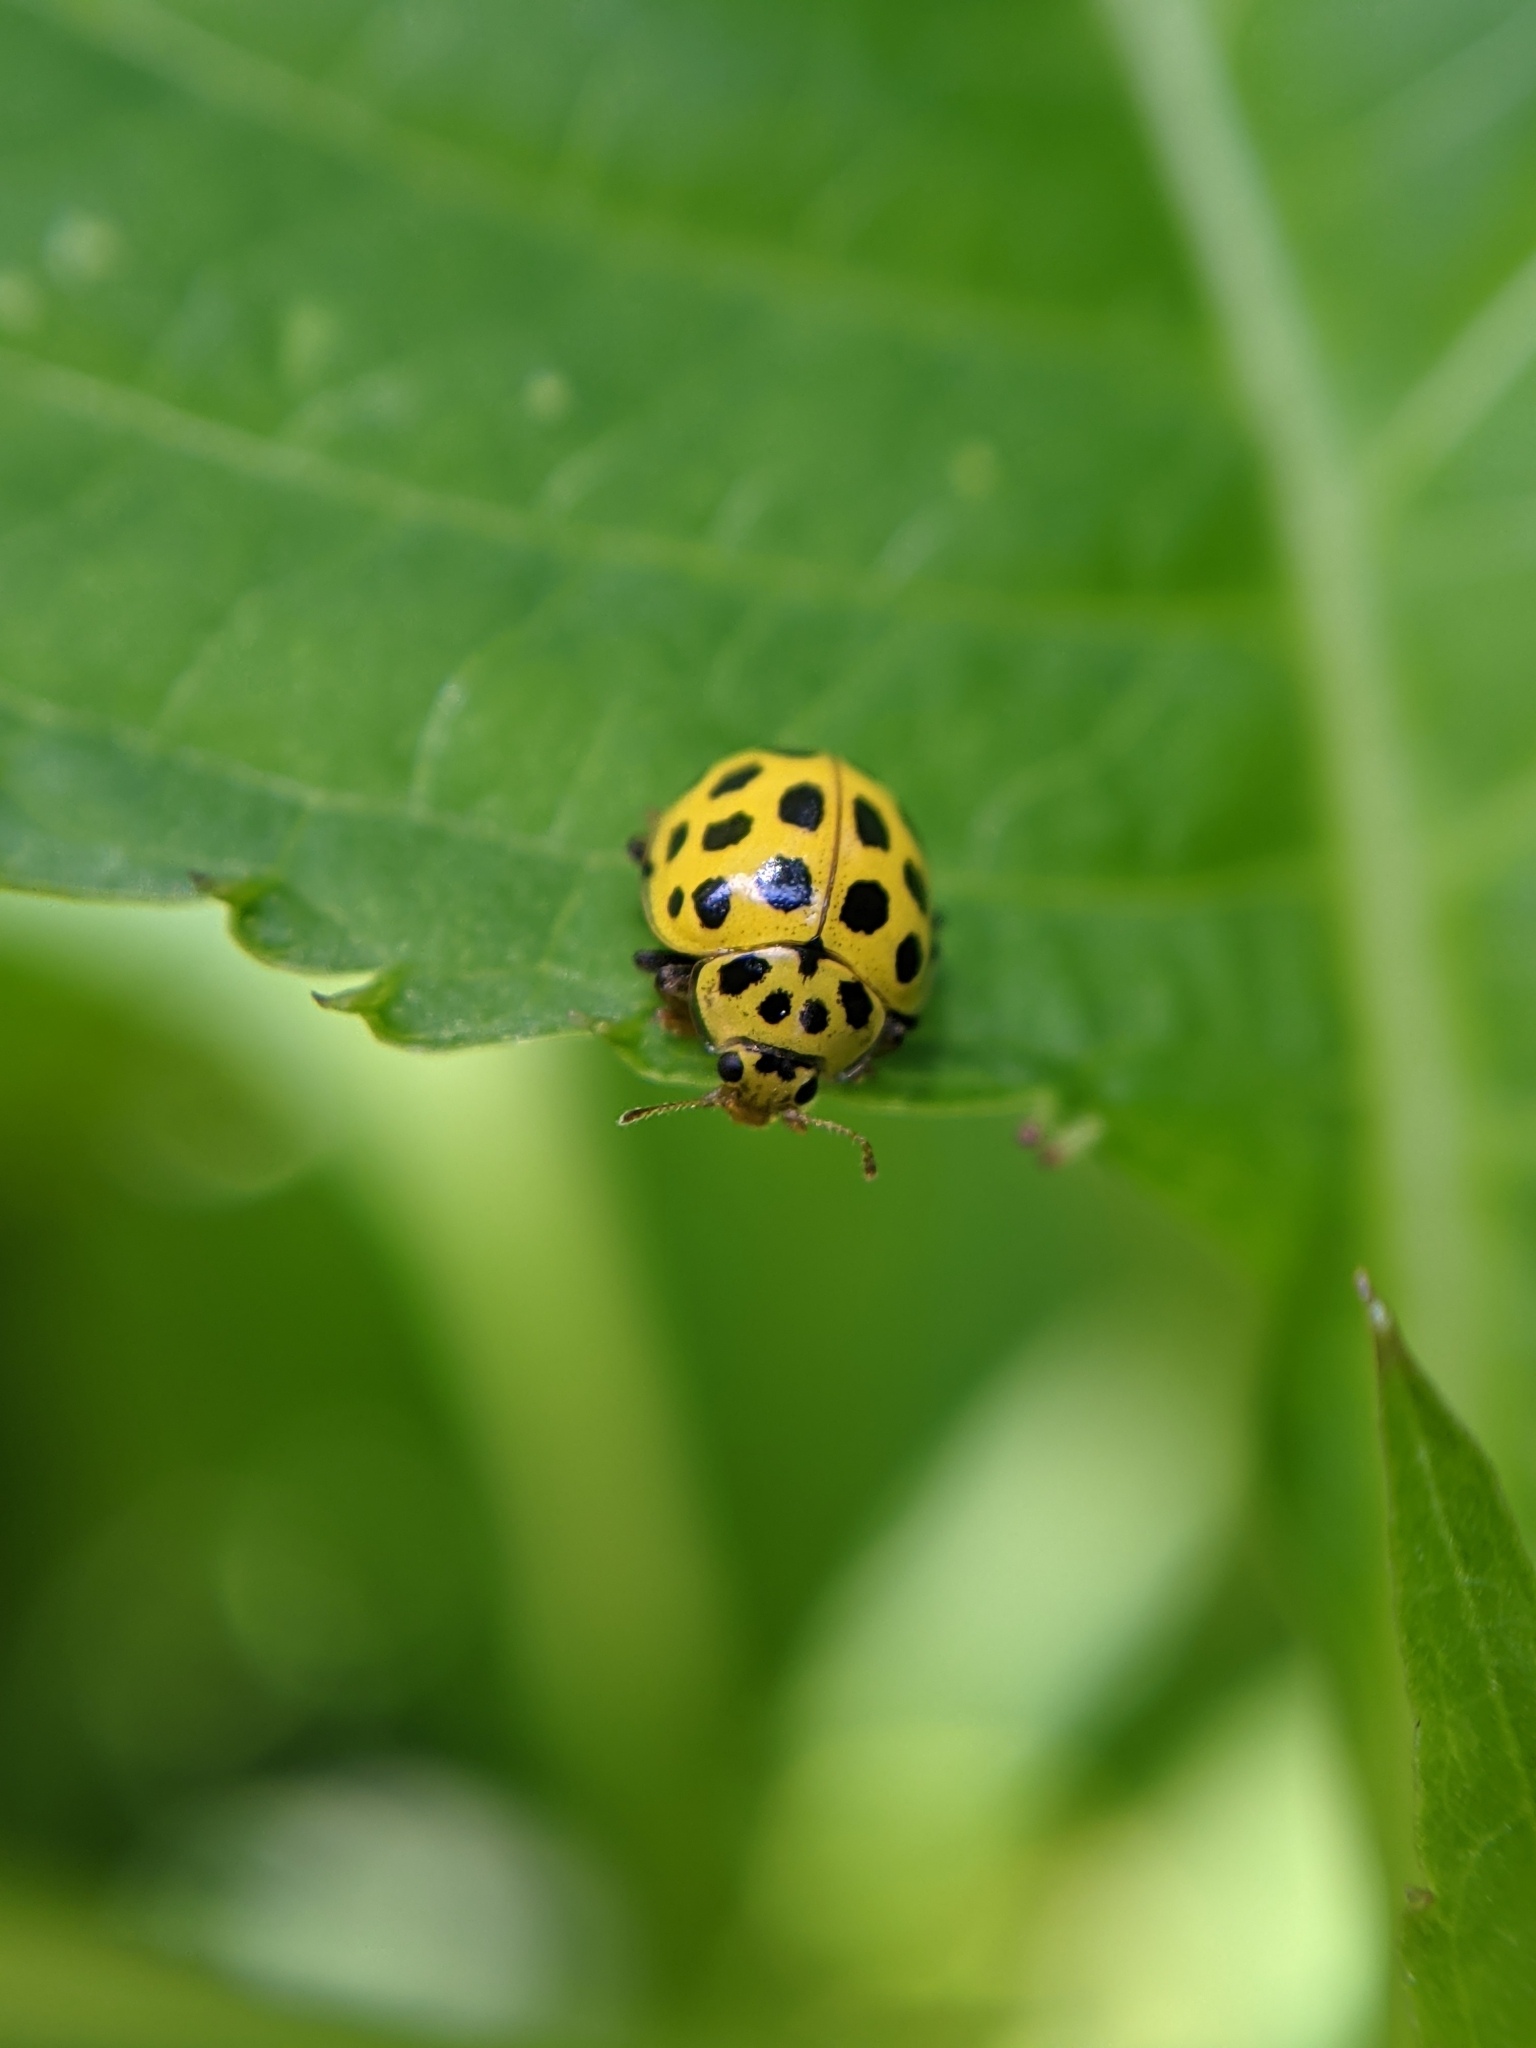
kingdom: Animalia
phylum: Arthropoda
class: Insecta
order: Coleoptera
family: Coccinellidae
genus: Psyllobora
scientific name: Psyllobora vigintiduopunctata
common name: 22-spot ladybird
